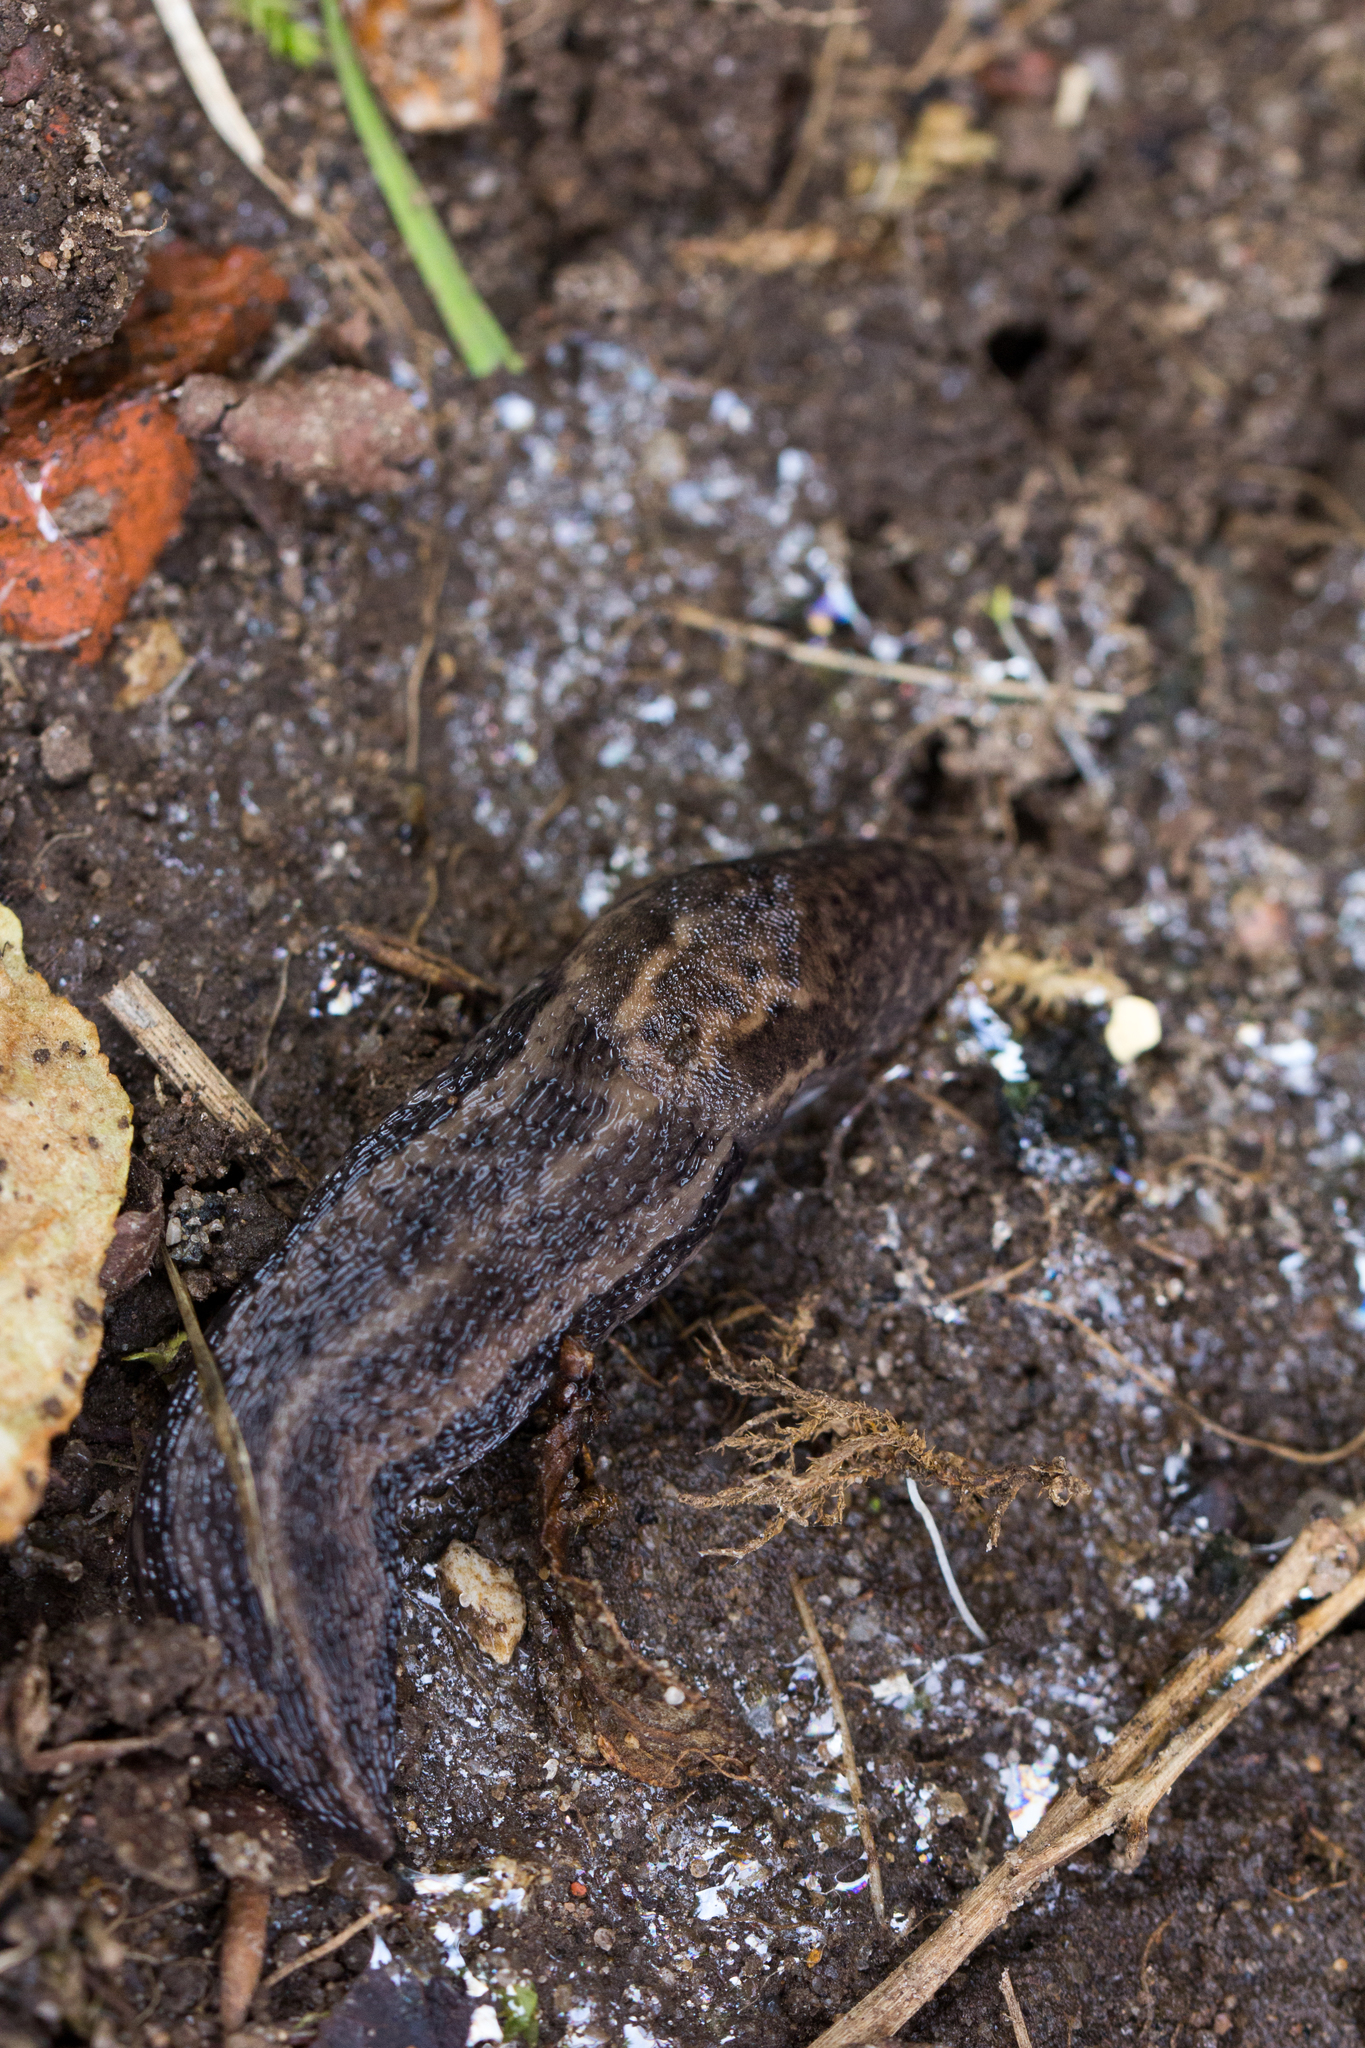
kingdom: Animalia
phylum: Mollusca
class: Gastropoda
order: Stylommatophora
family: Limacidae
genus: Limax
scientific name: Limax maximus
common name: Great grey slug
